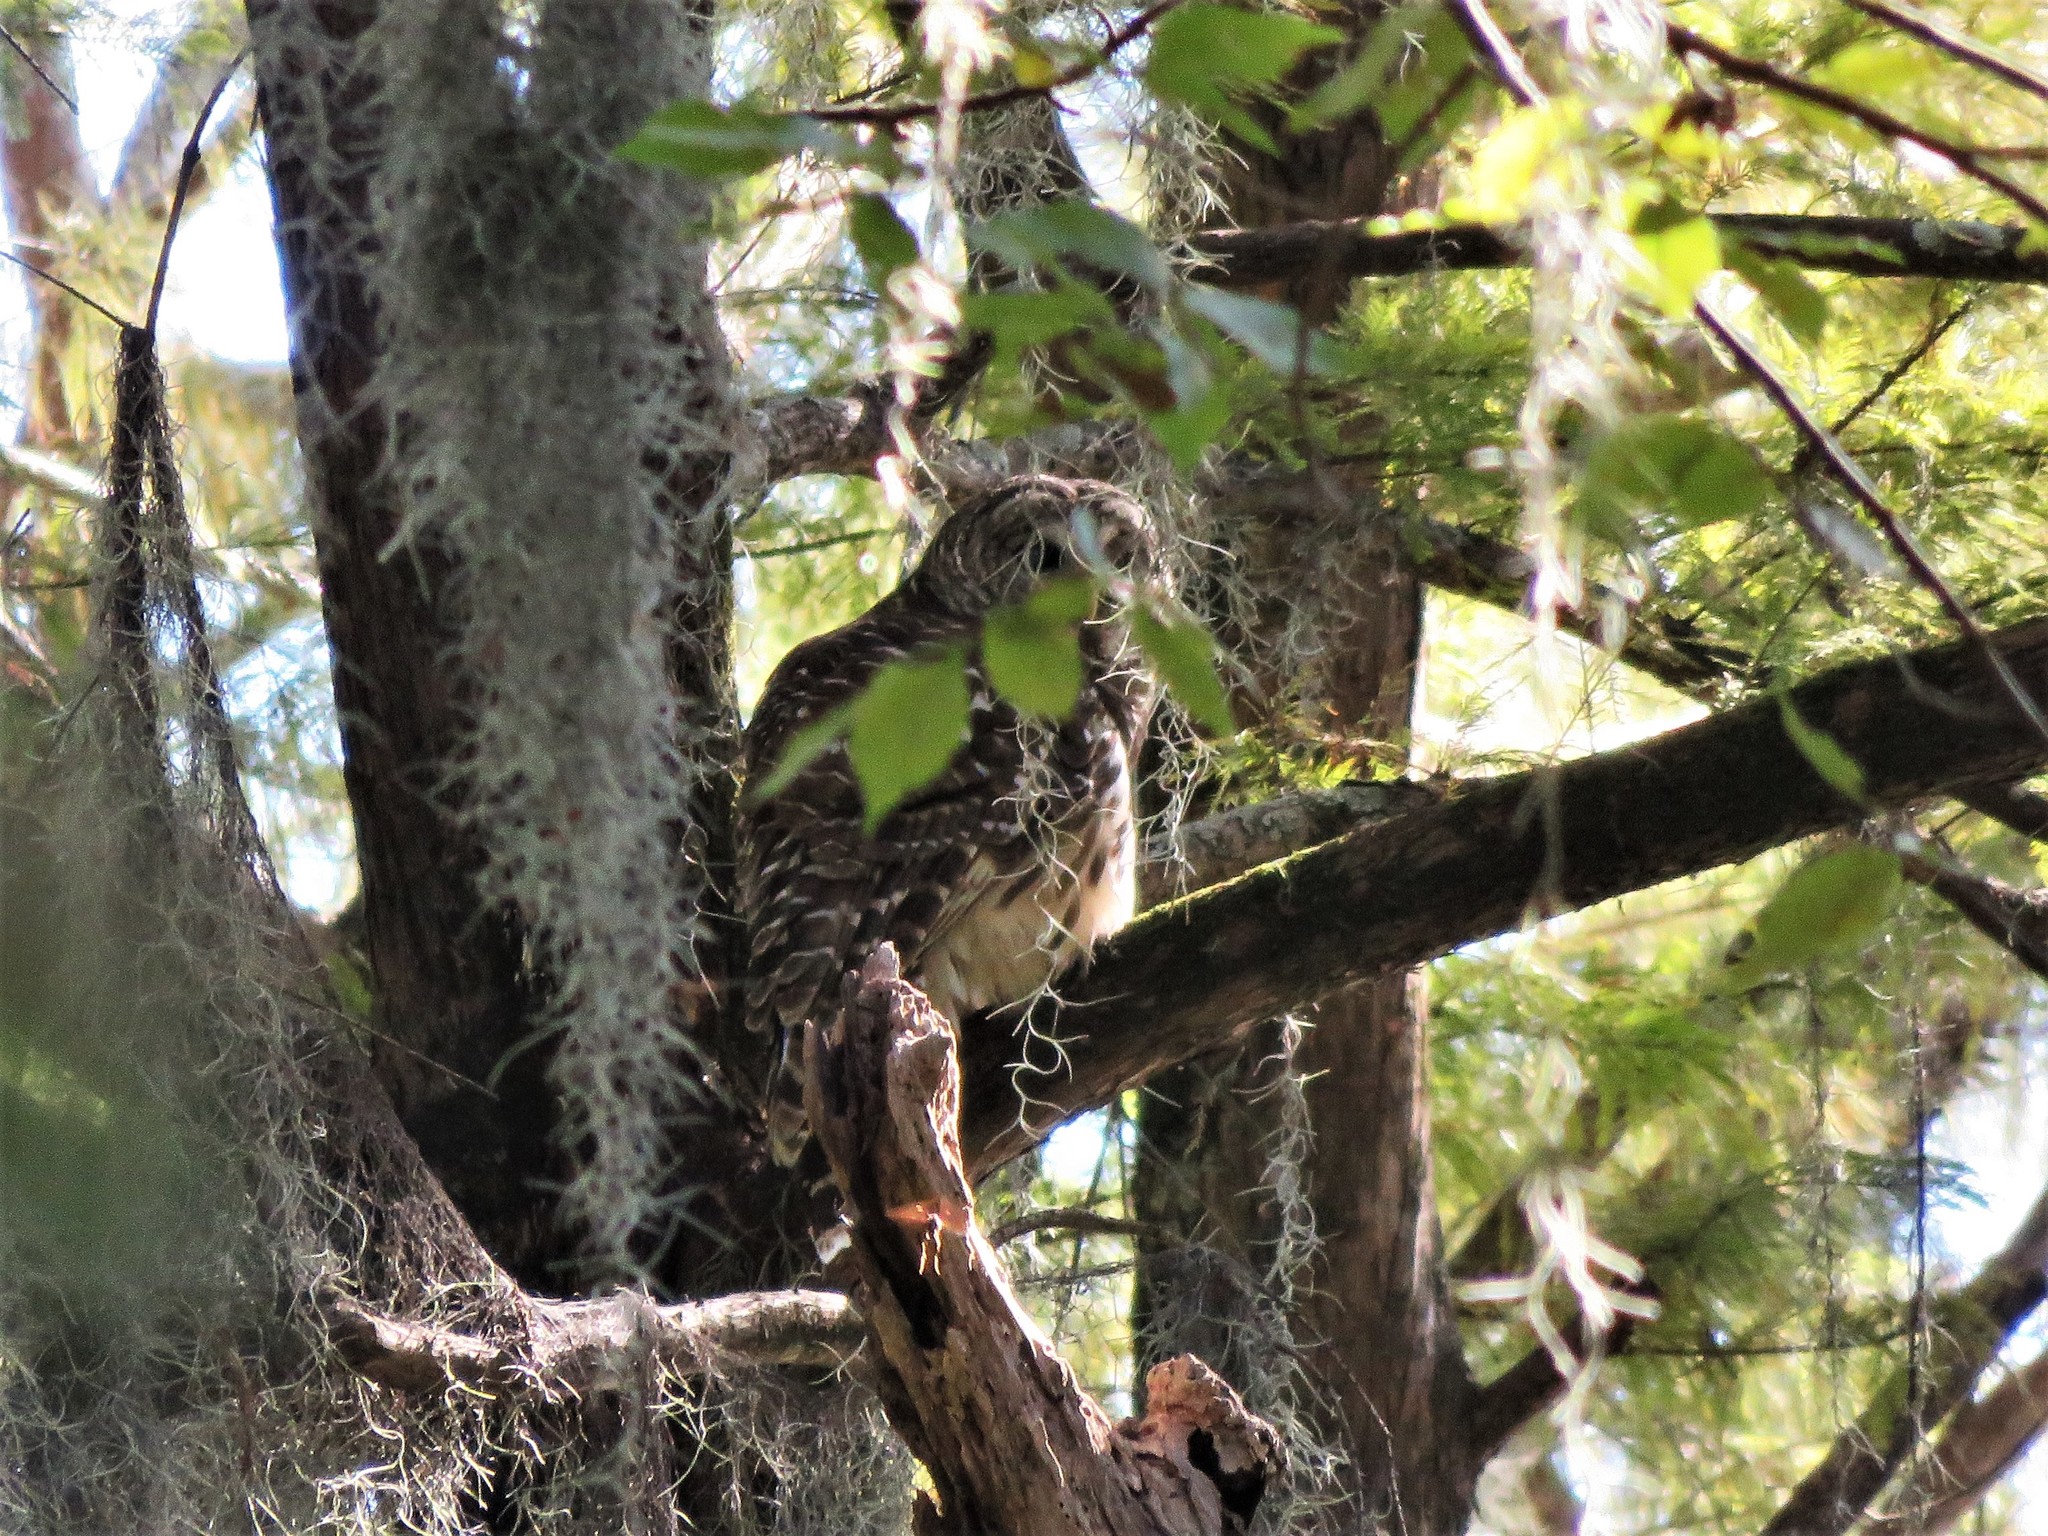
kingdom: Animalia
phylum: Chordata
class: Aves
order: Strigiformes
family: Strigidae
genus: Strix
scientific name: Strix varia
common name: Barred owl
